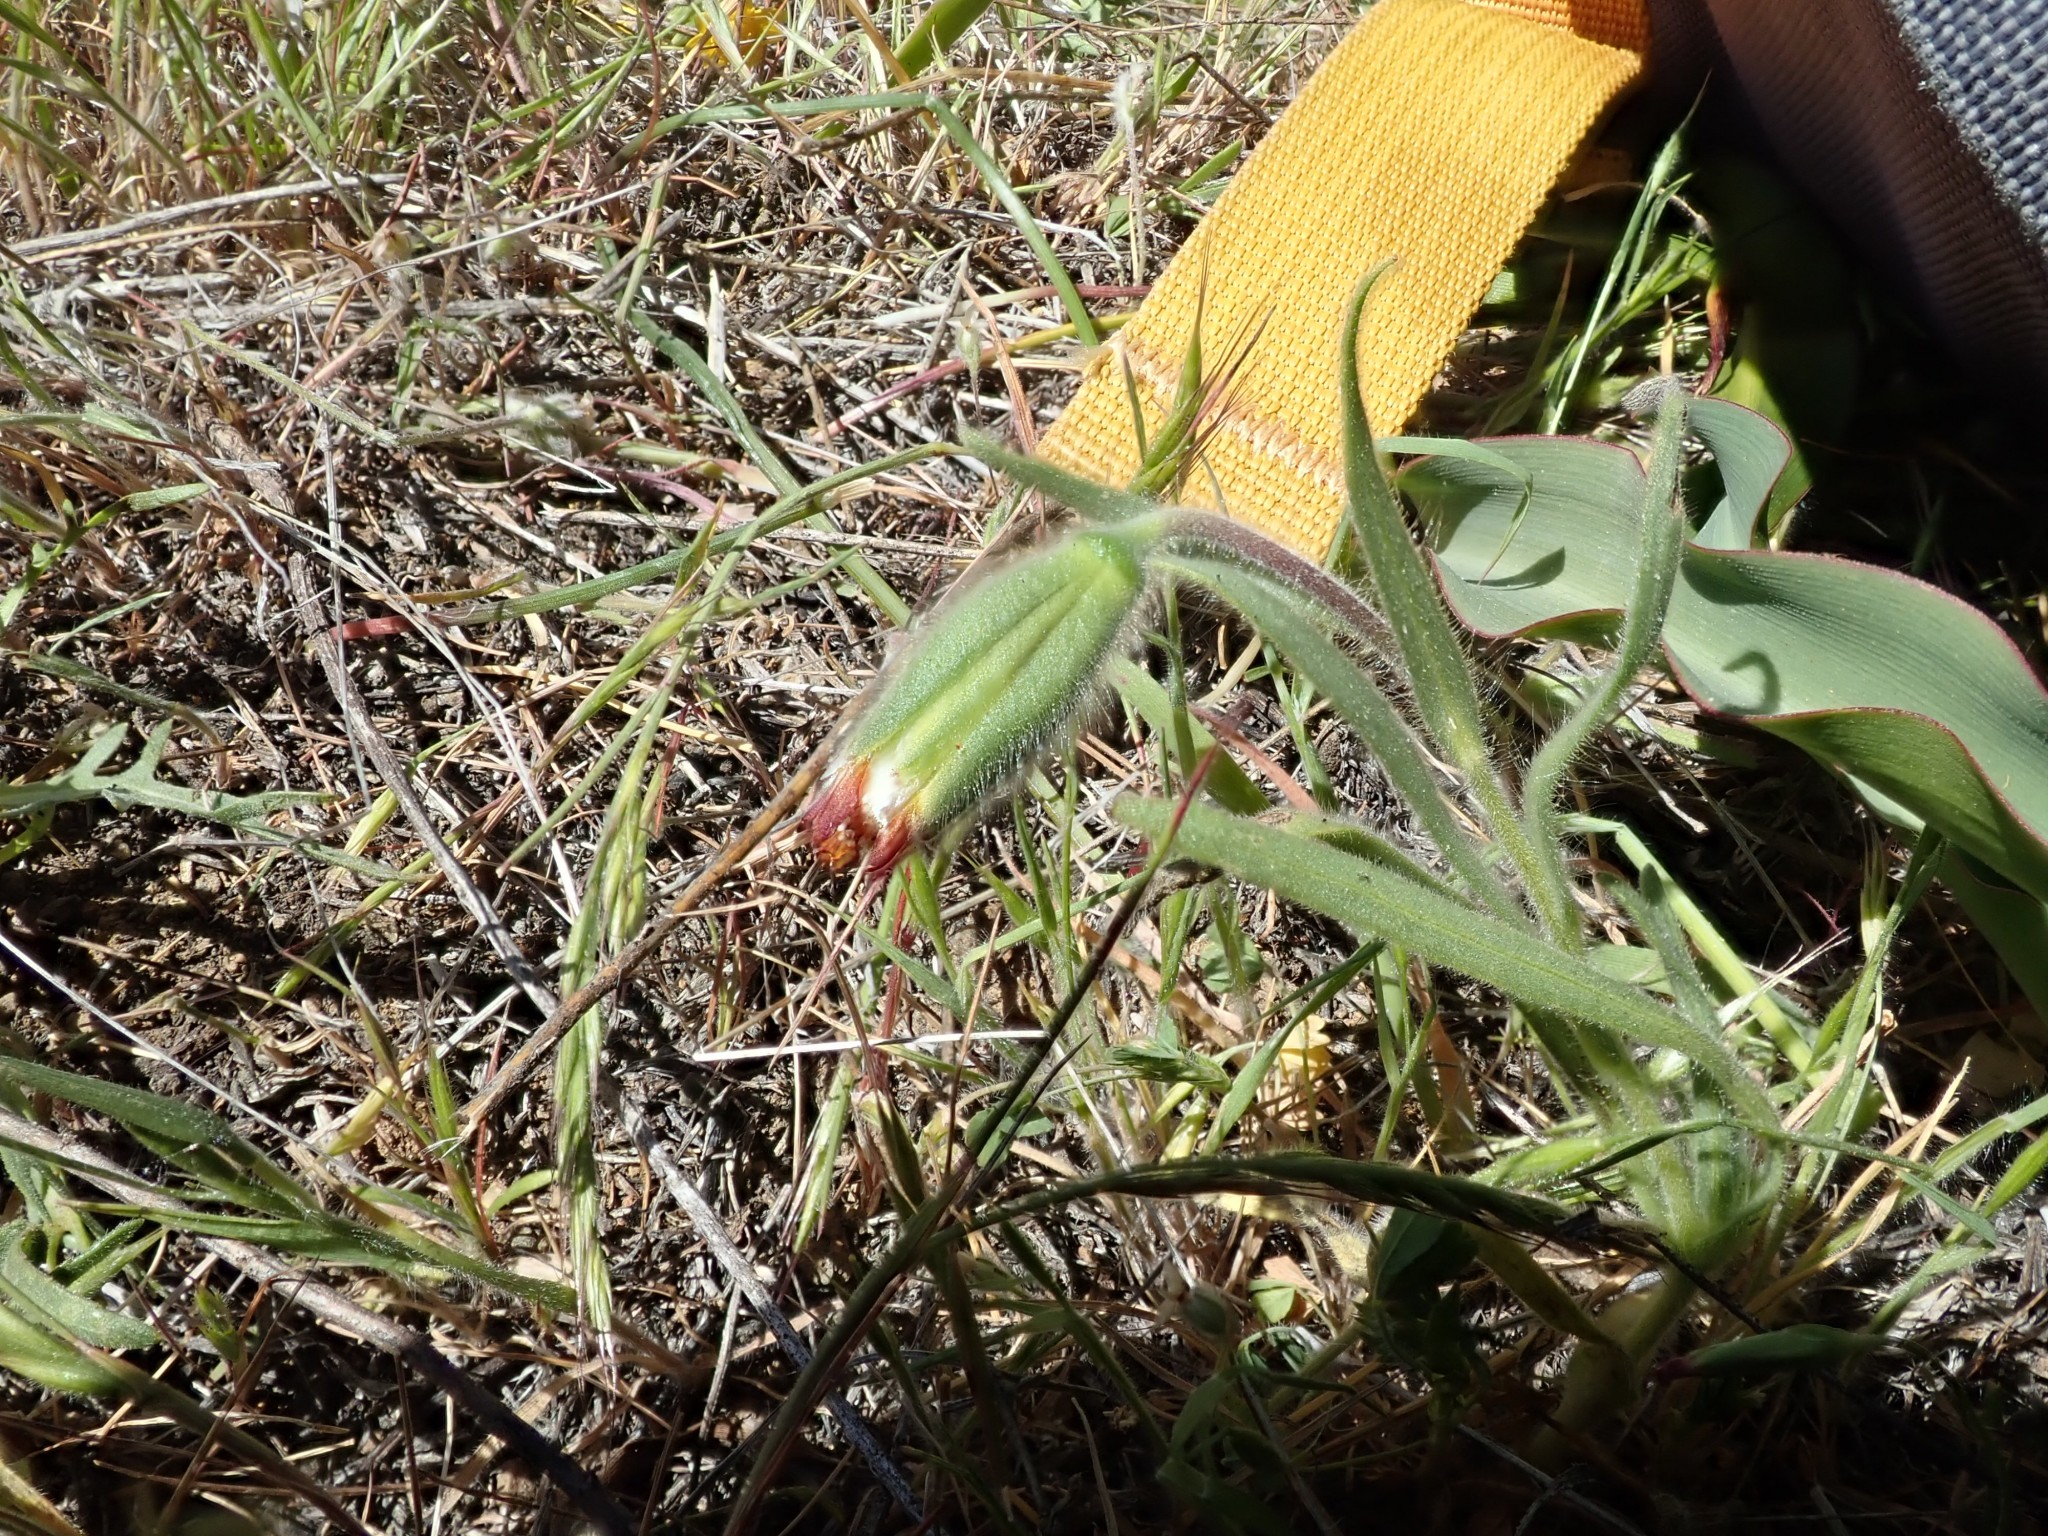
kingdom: Plantae
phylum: Tracheophyta
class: Magnoliopsida
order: Asterales
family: Asteraceae
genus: Achyrachaena
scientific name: Achyrachaena mollis
